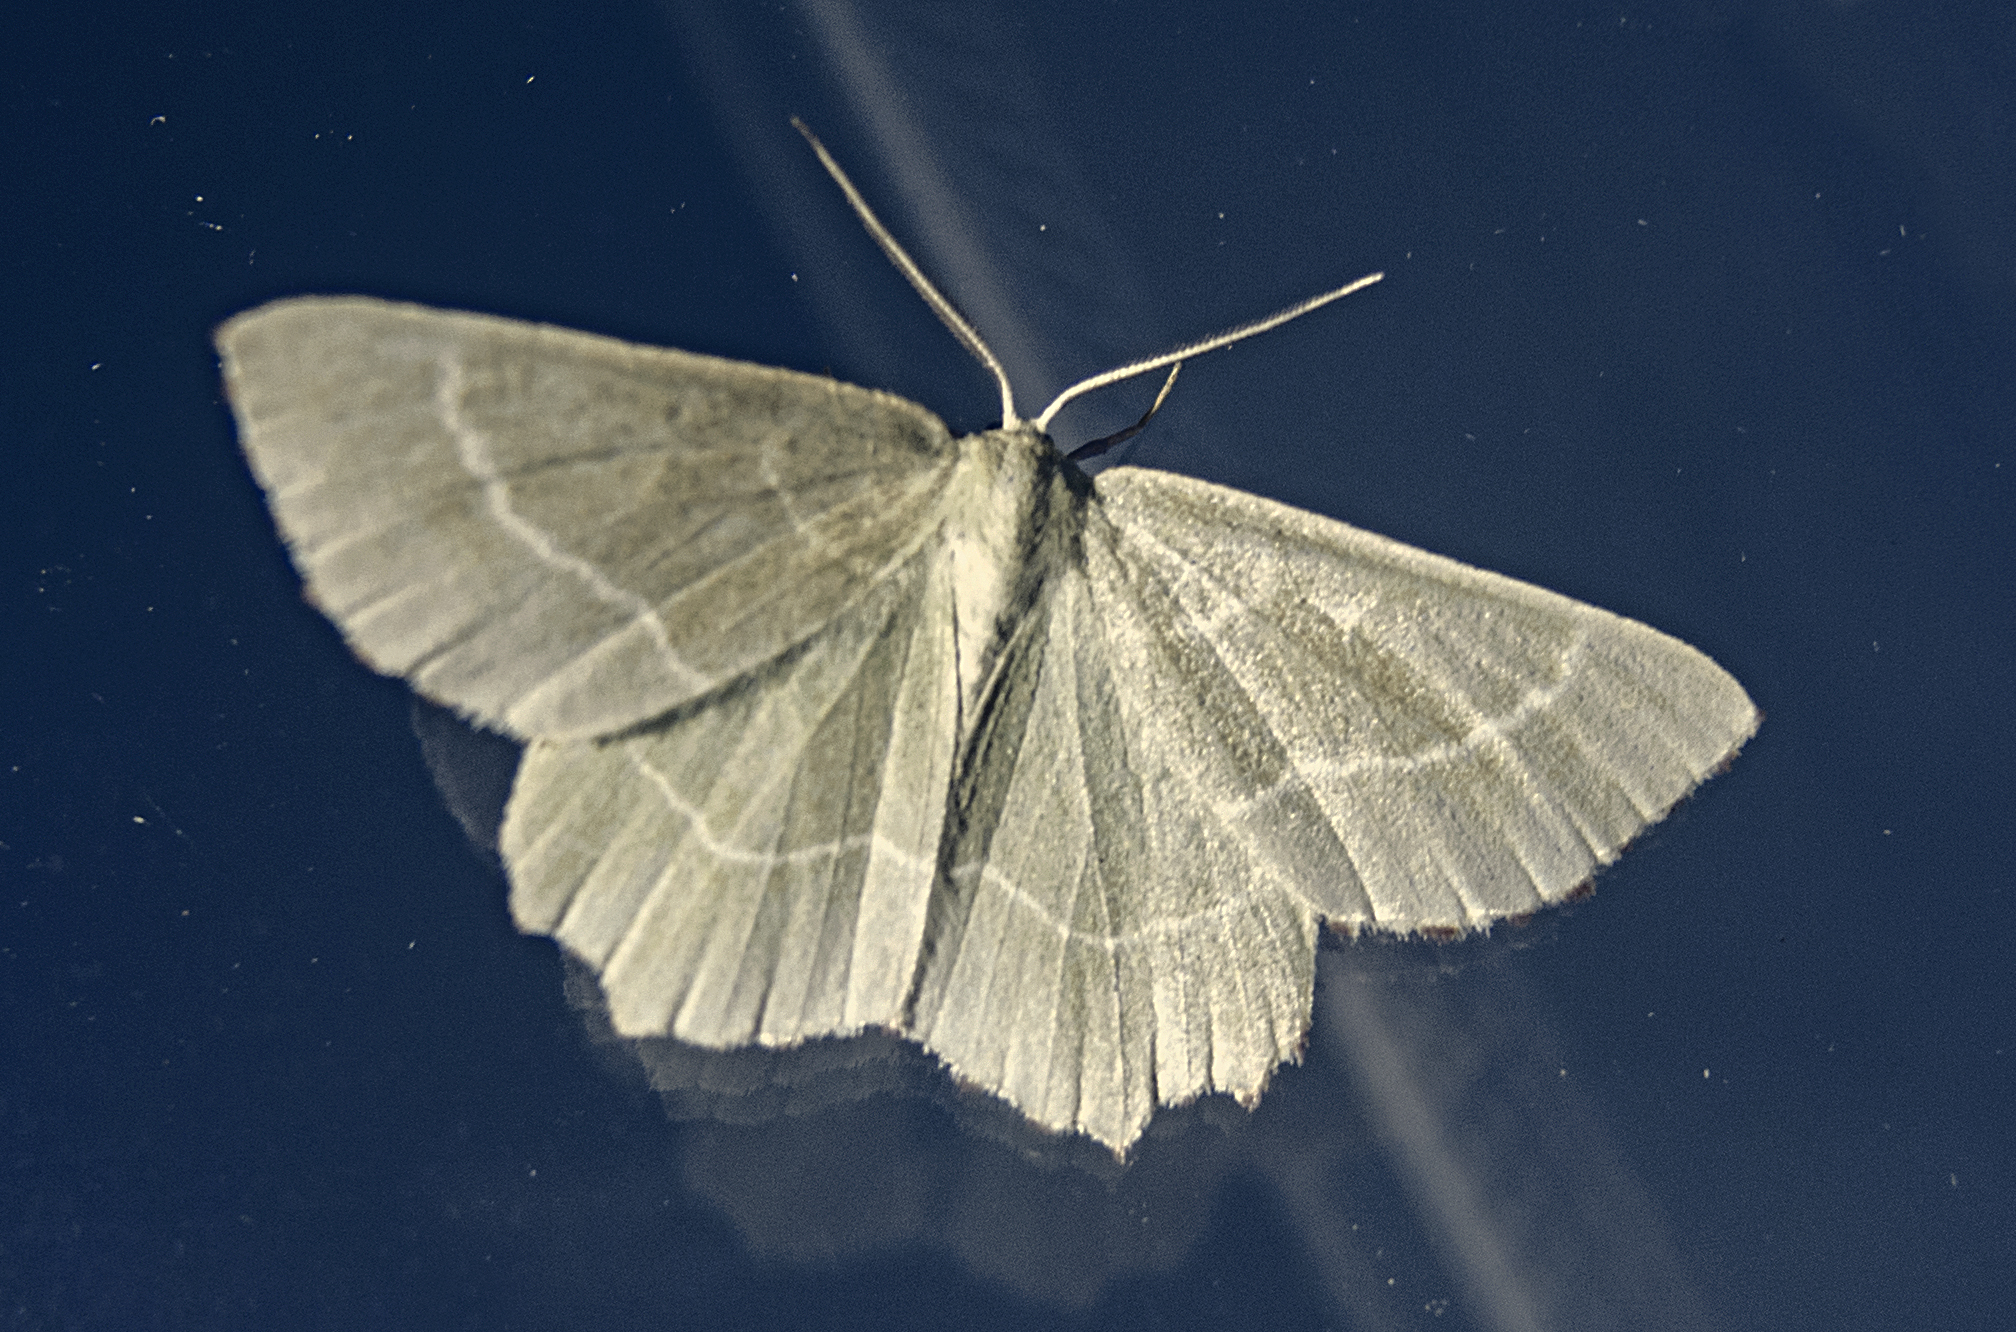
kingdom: Animalia
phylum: Arthropoda
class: Insecta
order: Lepidoptera
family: Geometridae
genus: Thalera
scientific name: Thalera fimbrialis
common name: Sussex emerald
